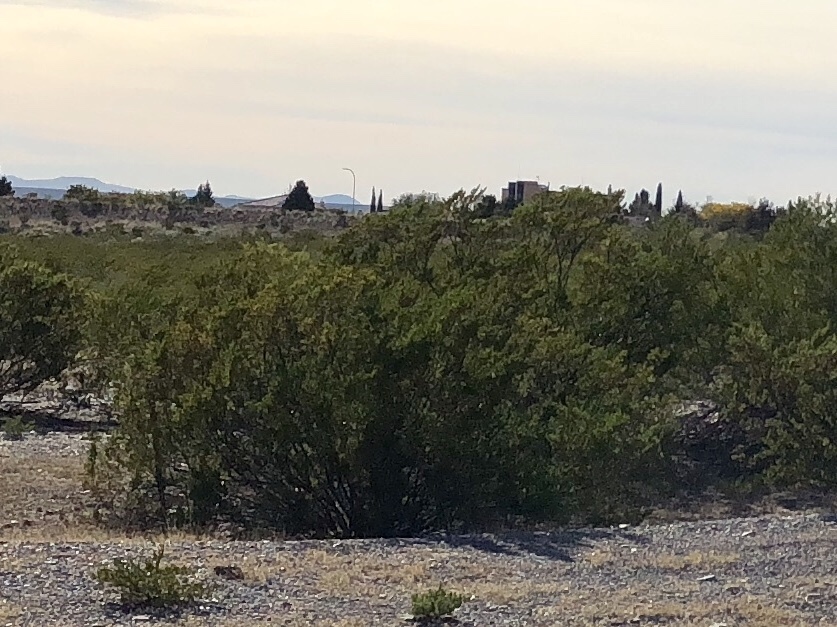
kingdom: Plantae
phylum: Tracheophyta
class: Magnoliopsida
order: Zygophyllales
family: Zygophyllaceae
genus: Larrea
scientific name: Larrea tridentata
